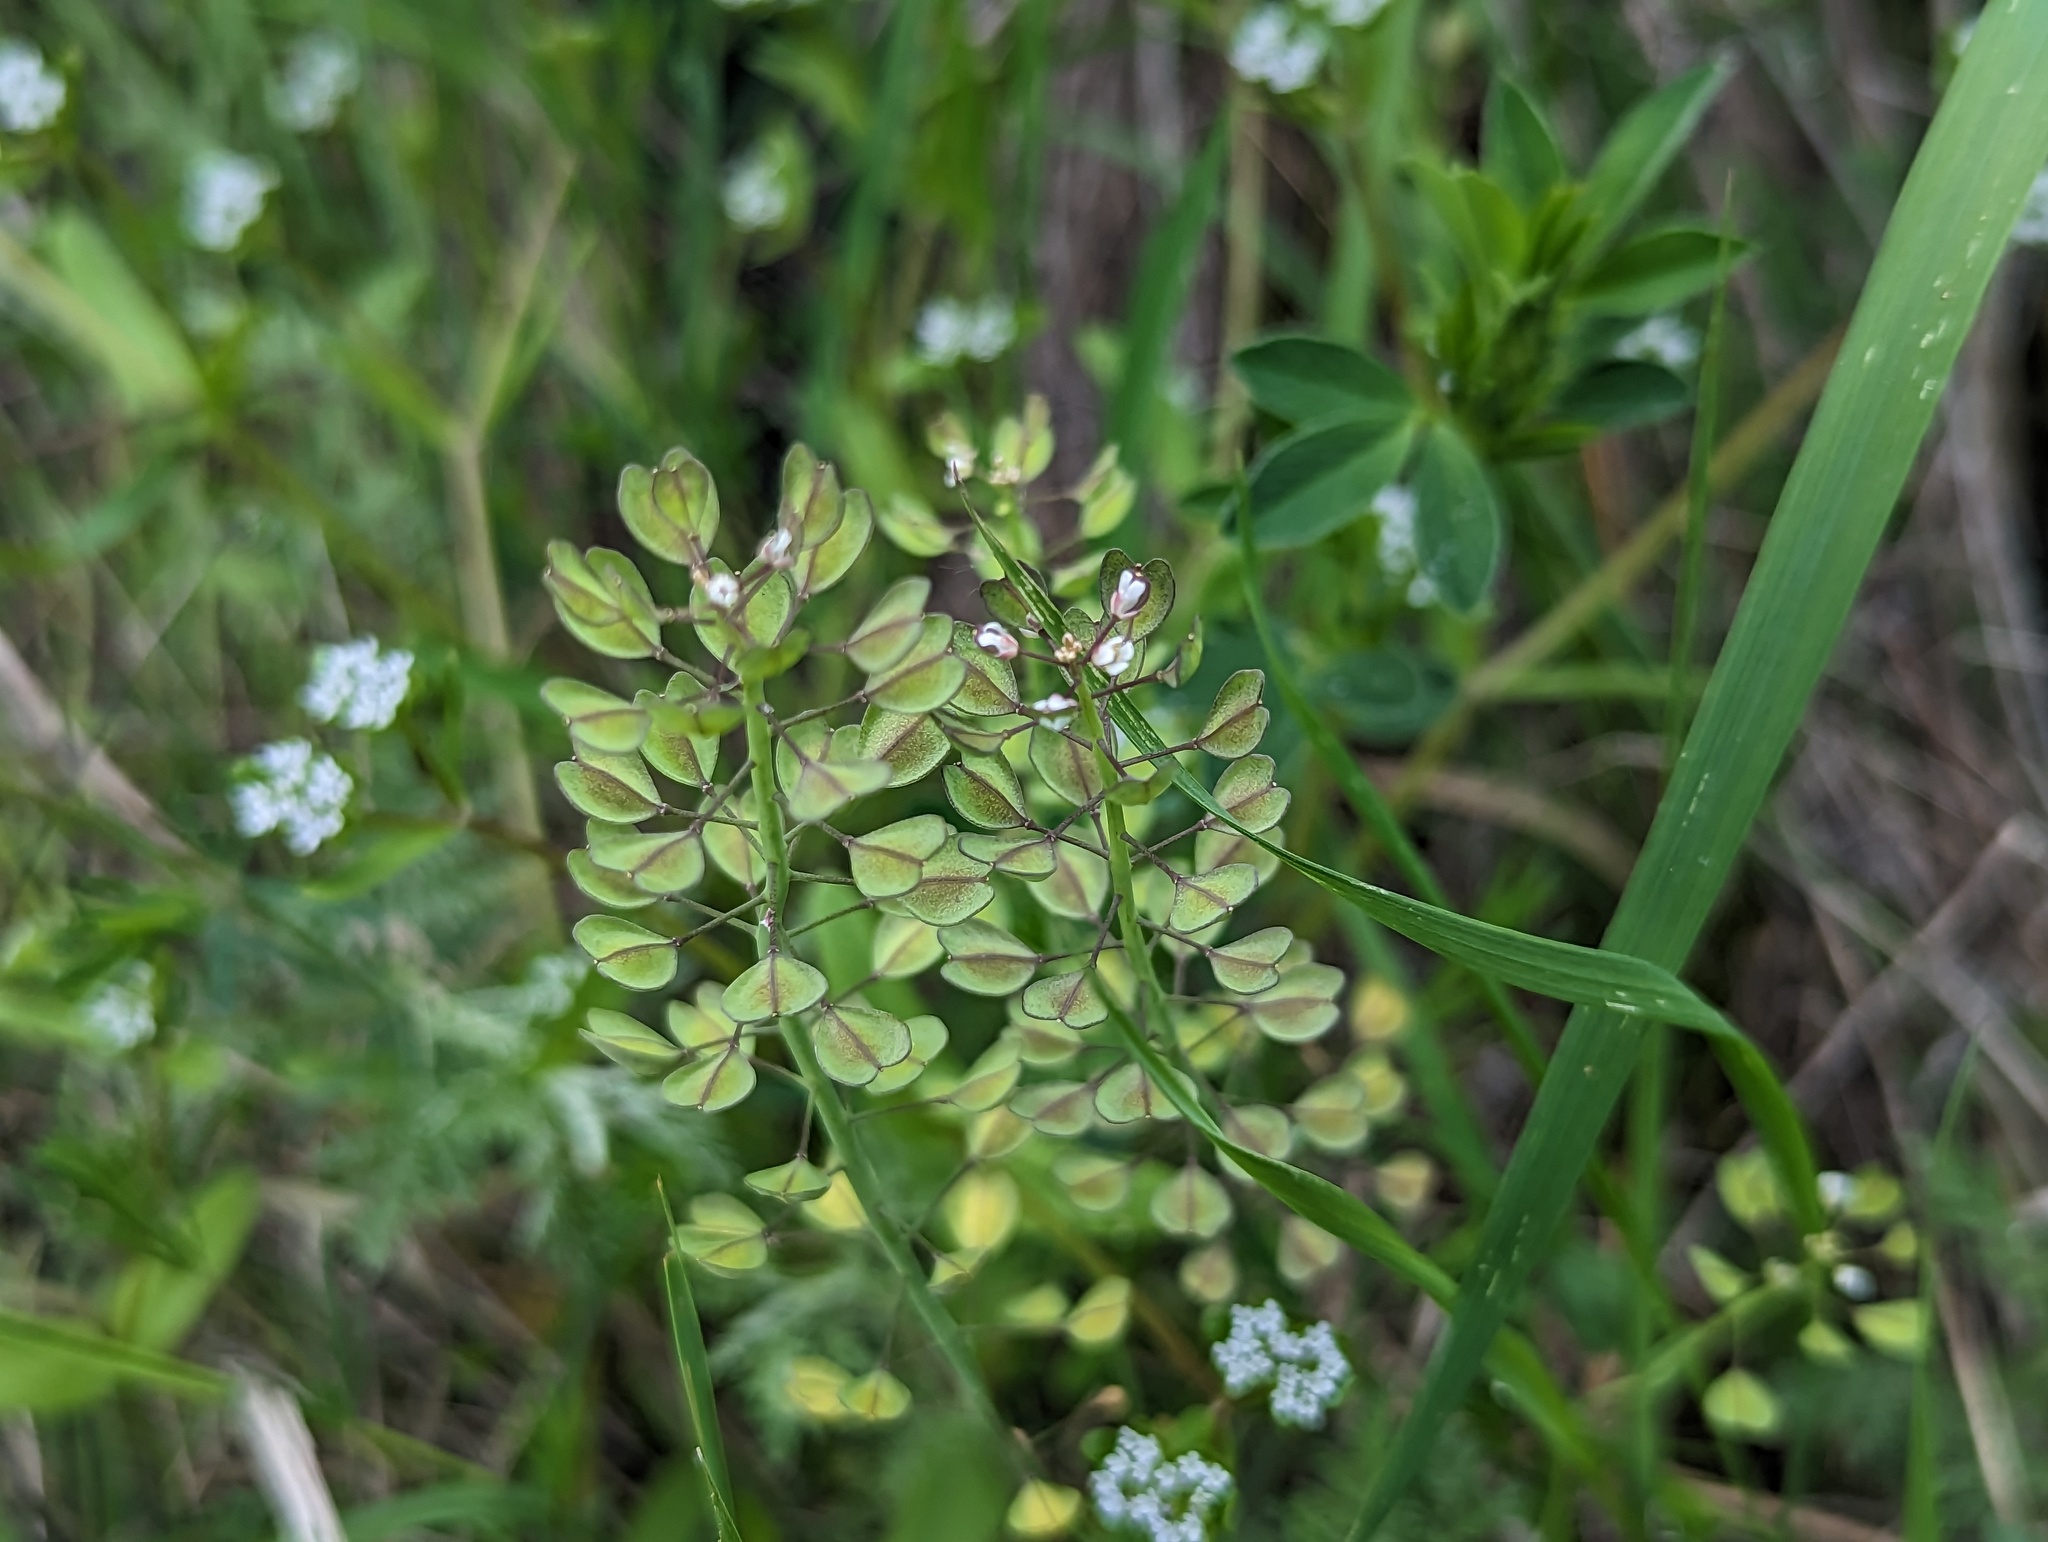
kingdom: Plantae
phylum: Tracheophyta
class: Magnoliopsida
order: Brassicales
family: Brassicaceae
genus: Noccaea
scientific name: Noccaea perfoliata
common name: Perfoliate pennycress
